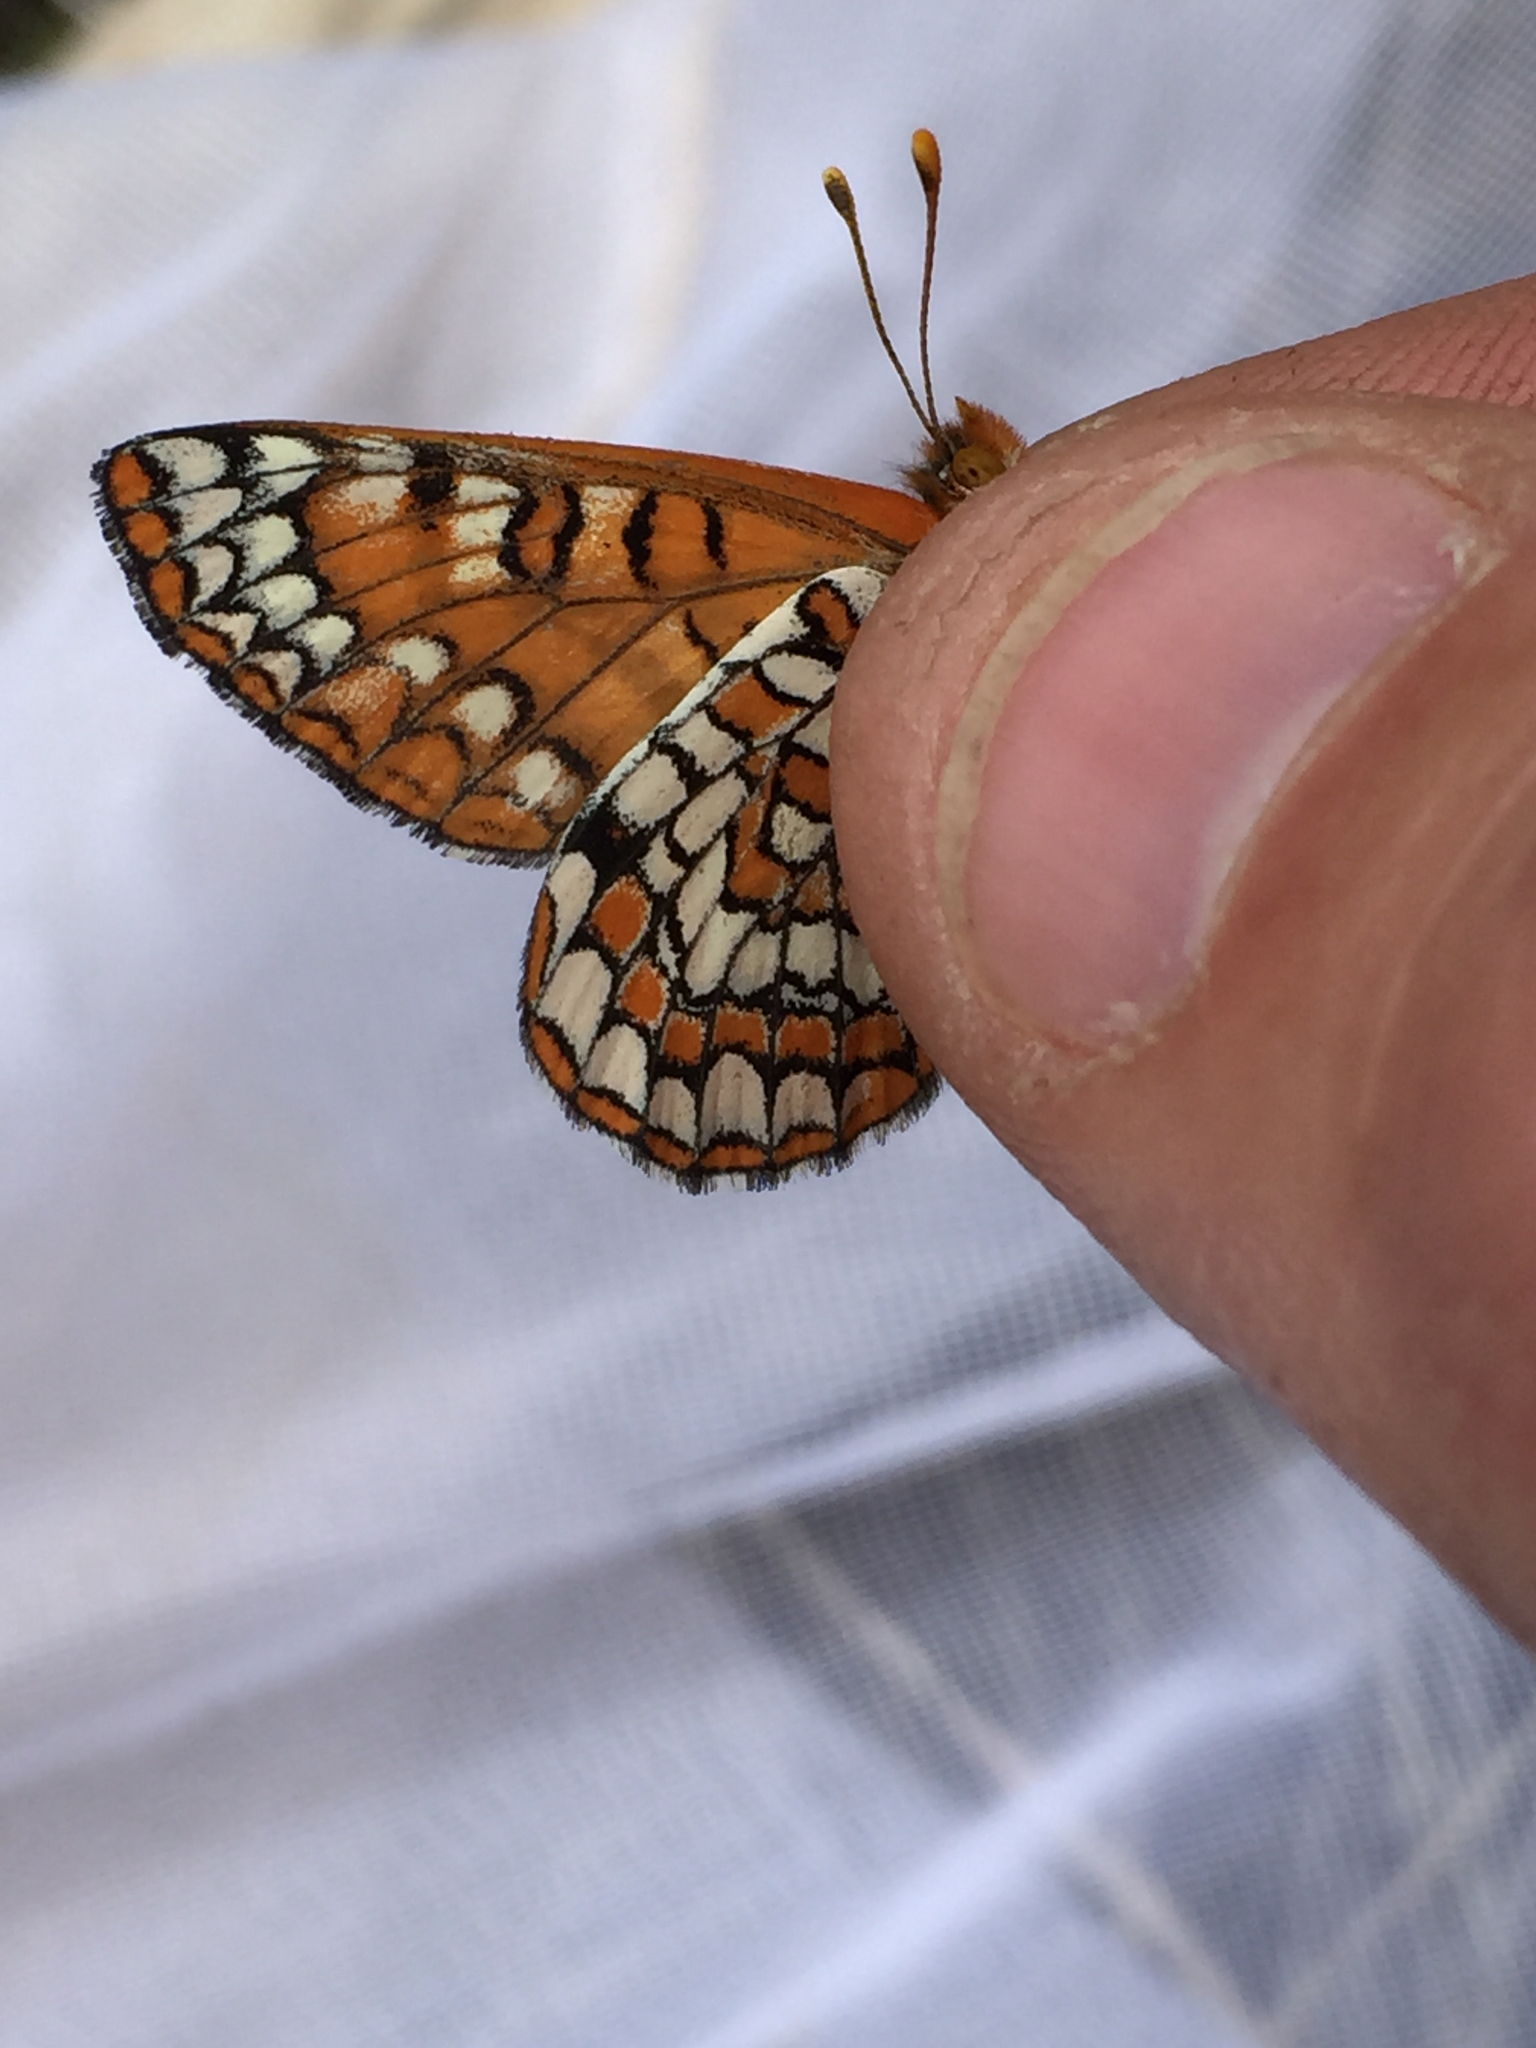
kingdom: Animalia
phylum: Arthropoda
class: Insecta
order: Lepidoptera
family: Nymphalidae
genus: Occidryas
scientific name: Occidryas anicia
